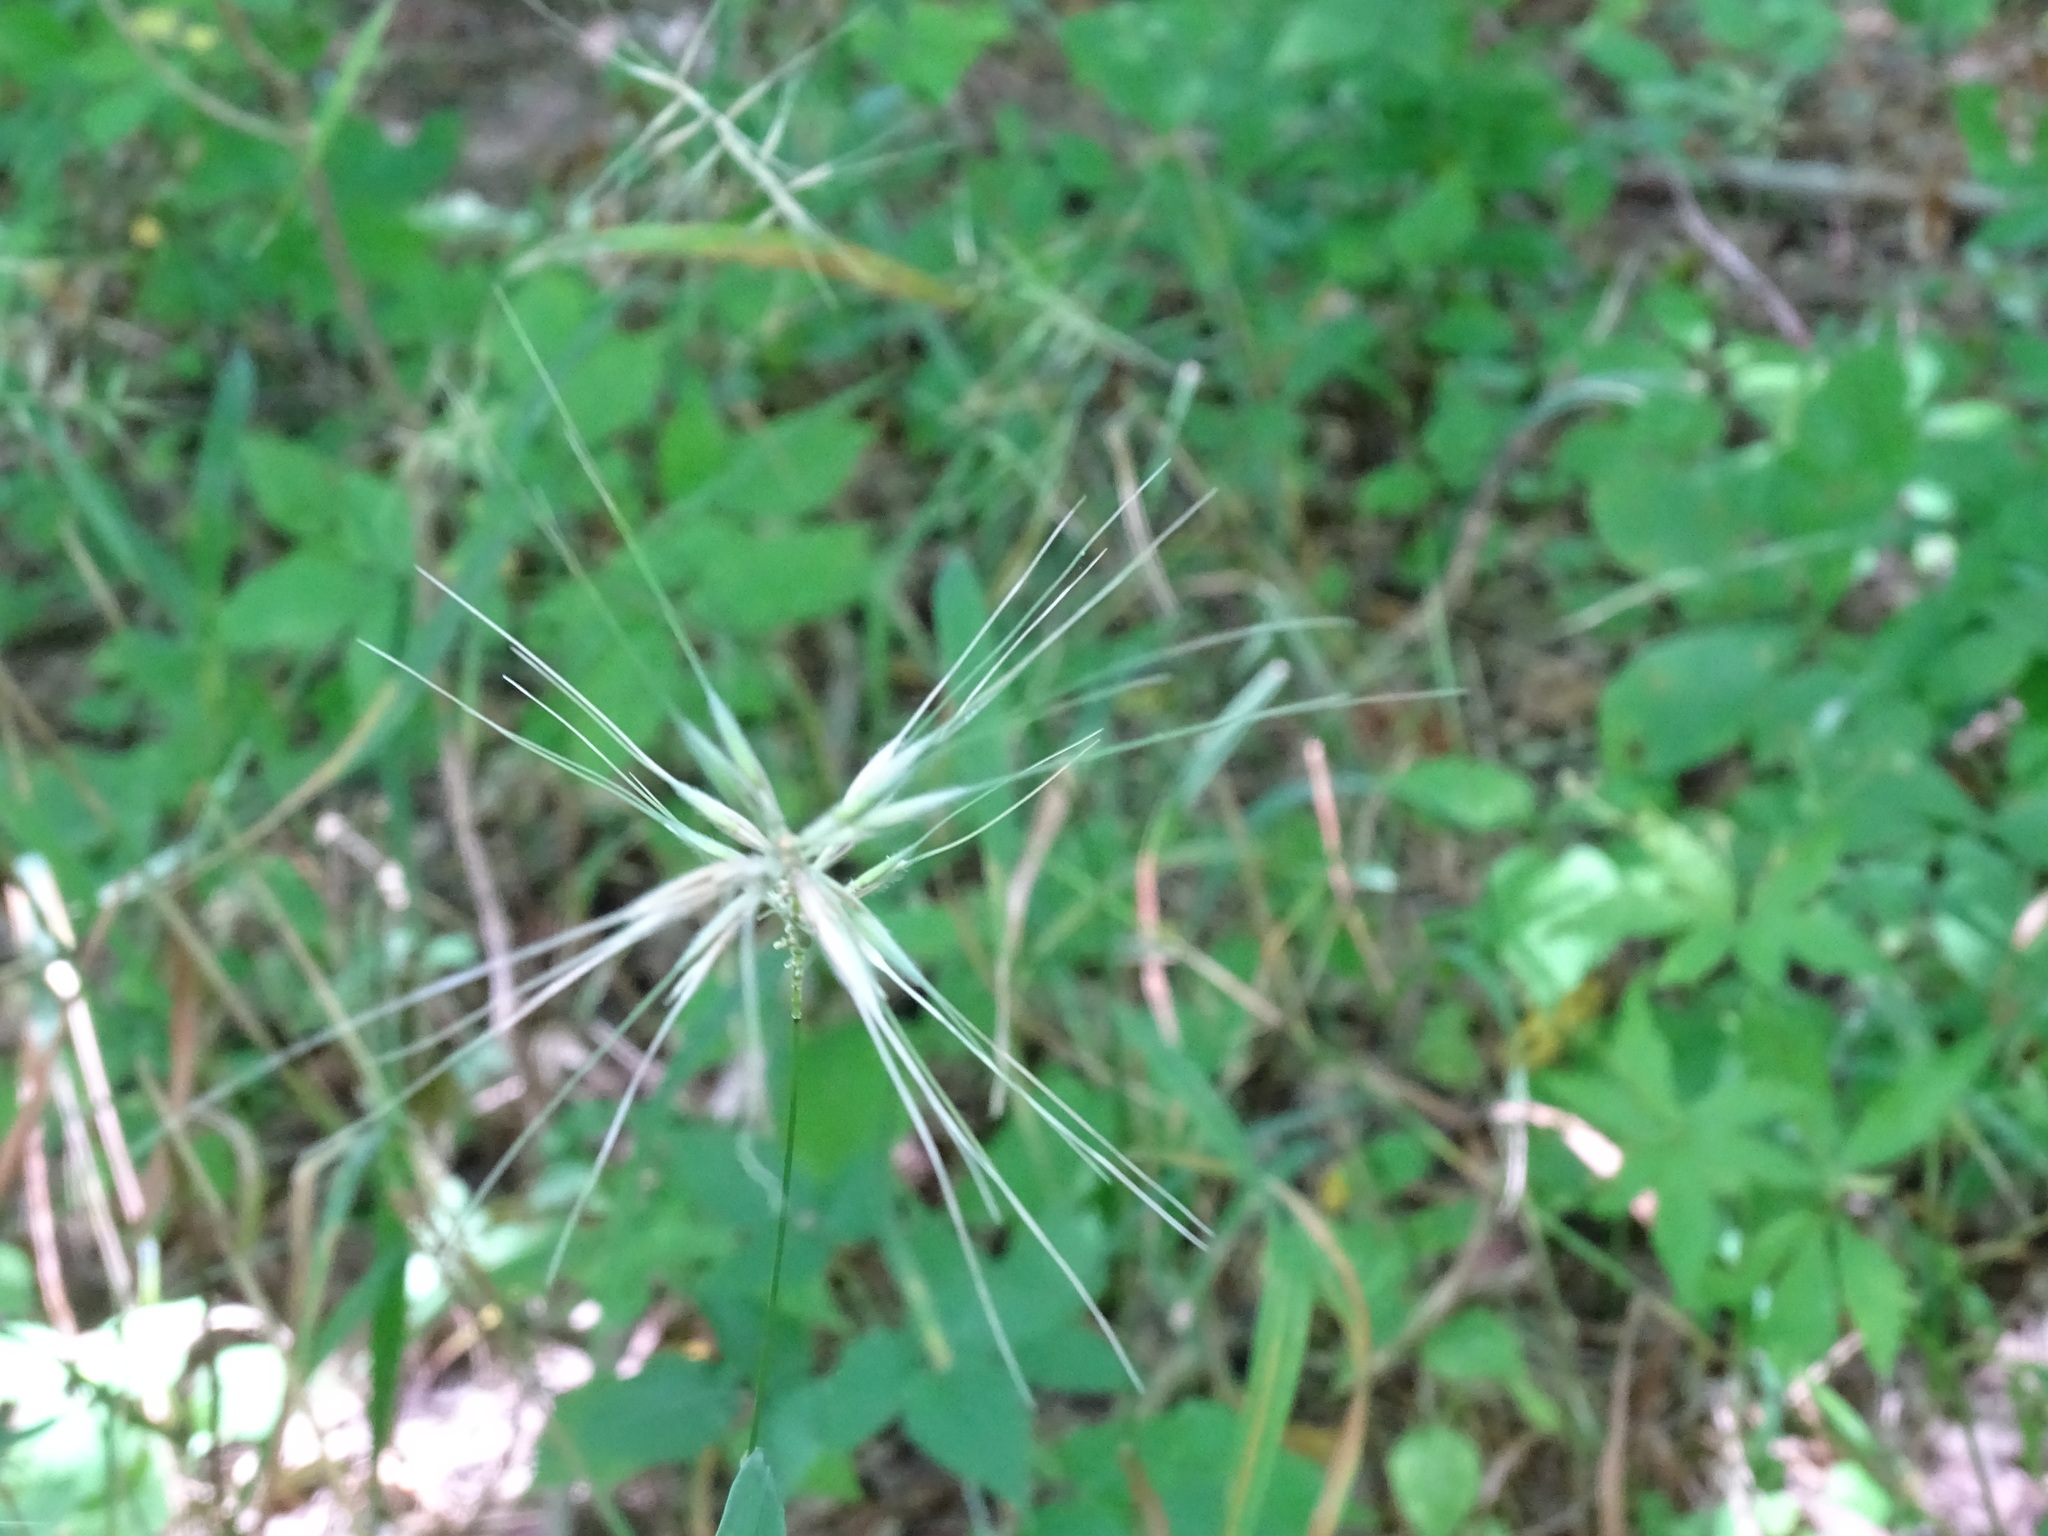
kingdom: Plantae
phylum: Tracheophyta
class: Liliopsida
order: Poales
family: Poaceae
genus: Elymus
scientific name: Elymus hystrix
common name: Bottlebrush grass
